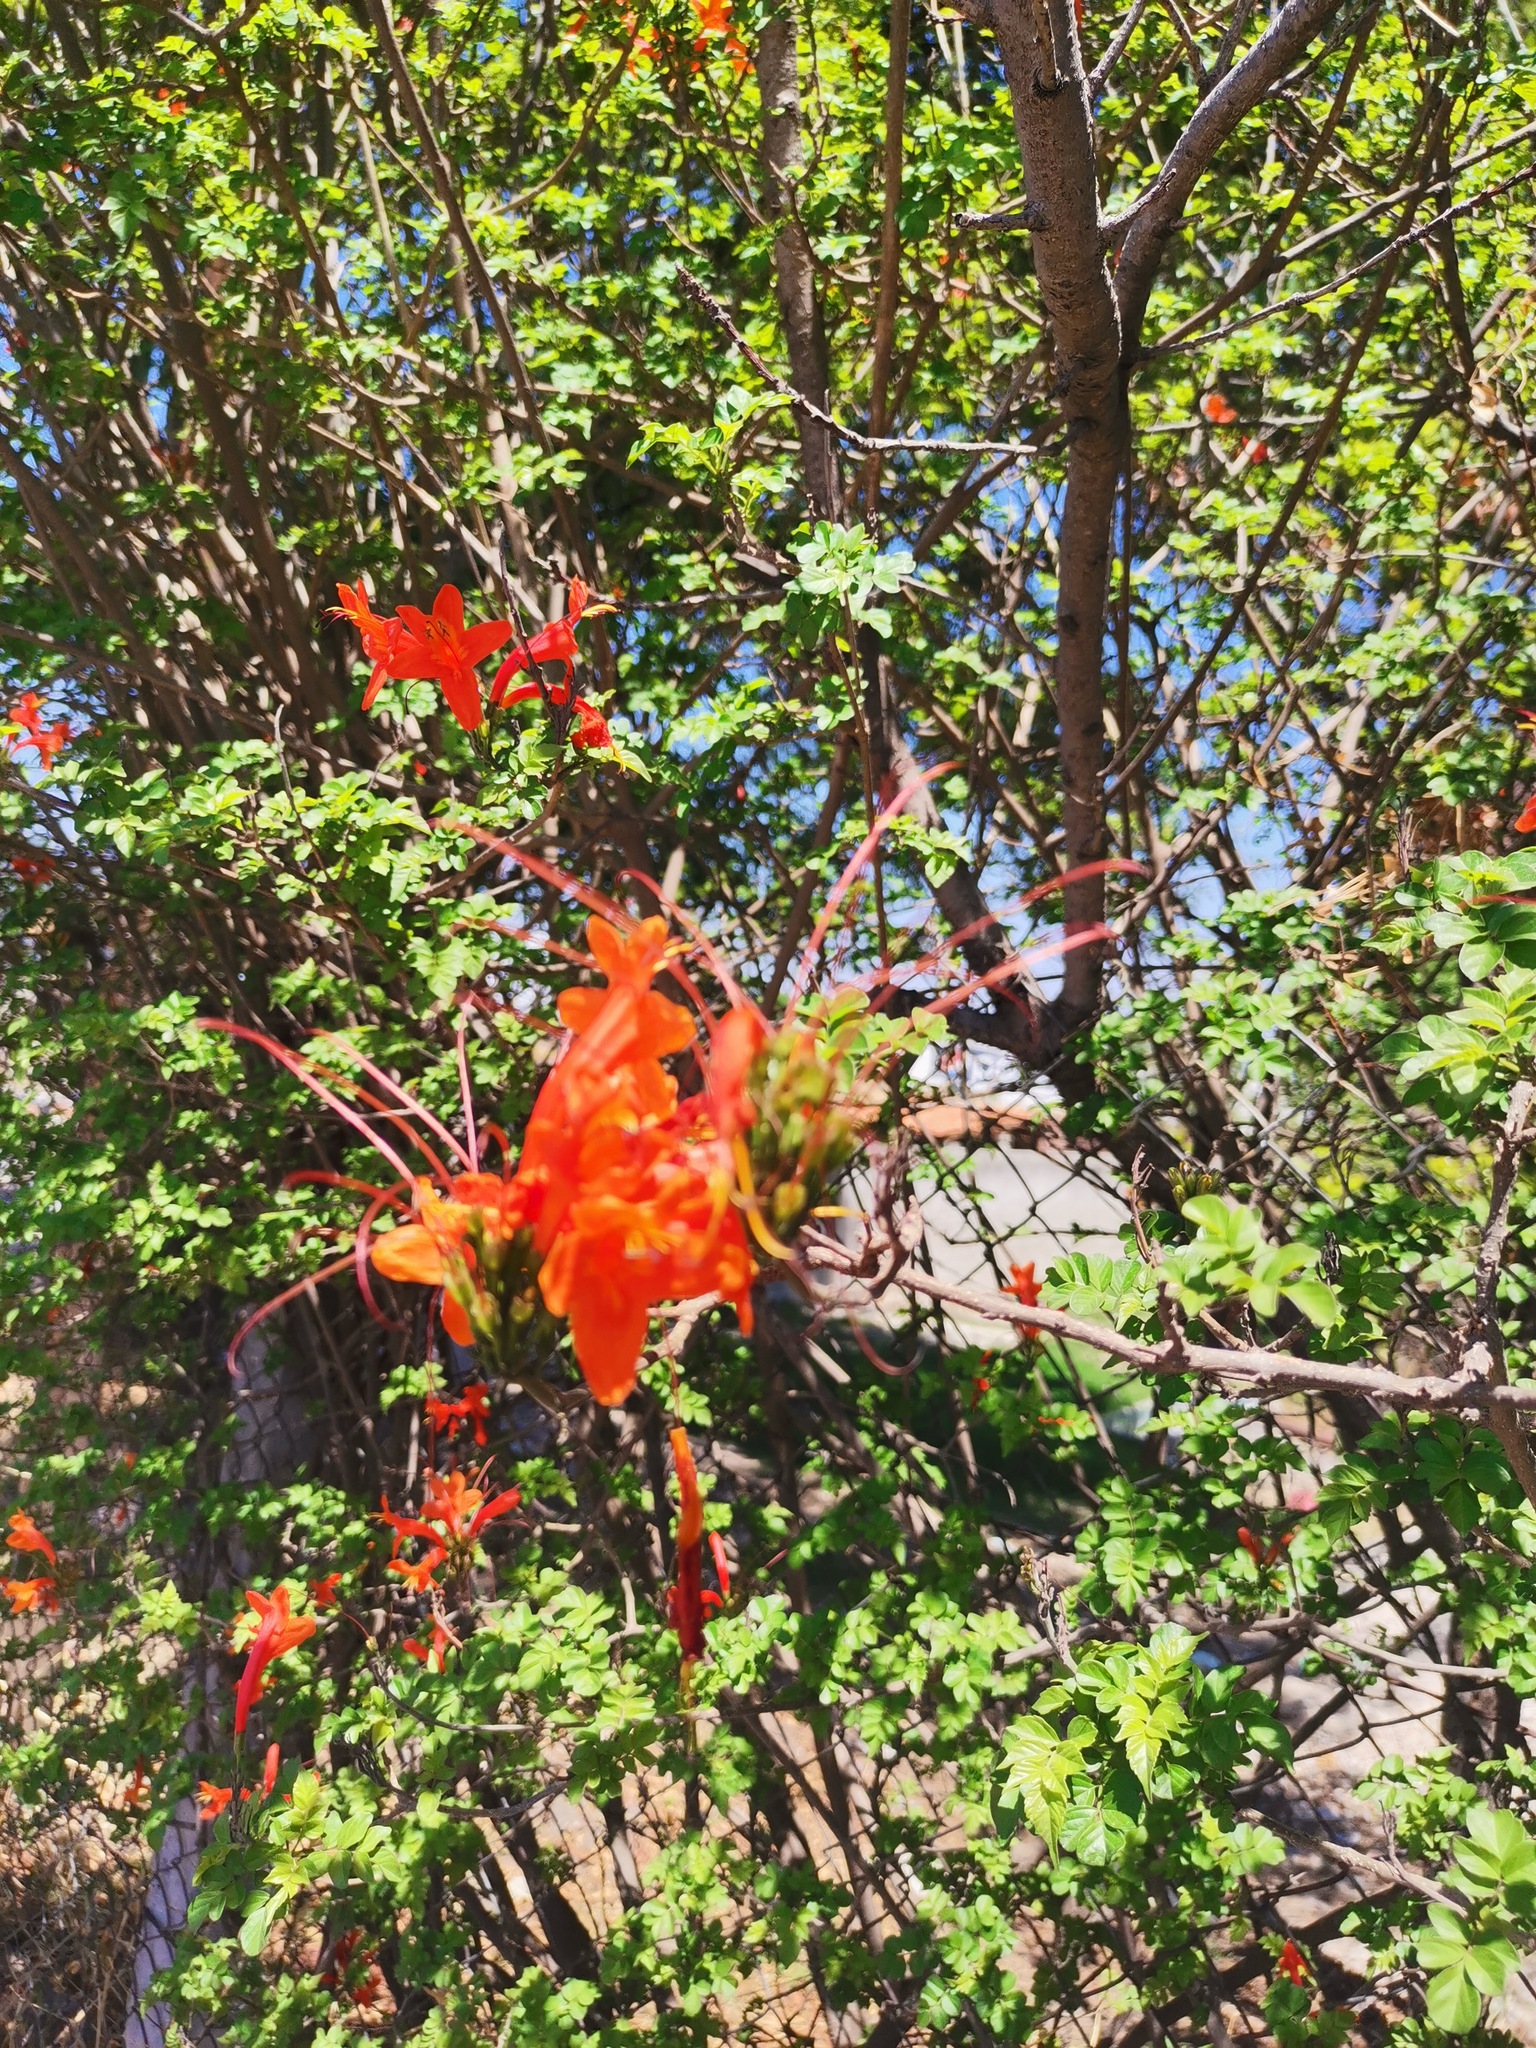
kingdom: Plantae
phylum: Tracheophyta
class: Magnoliopsida
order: Lamiales
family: Bignoniaceae
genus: Tecomaria
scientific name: Tecomaria capensis
